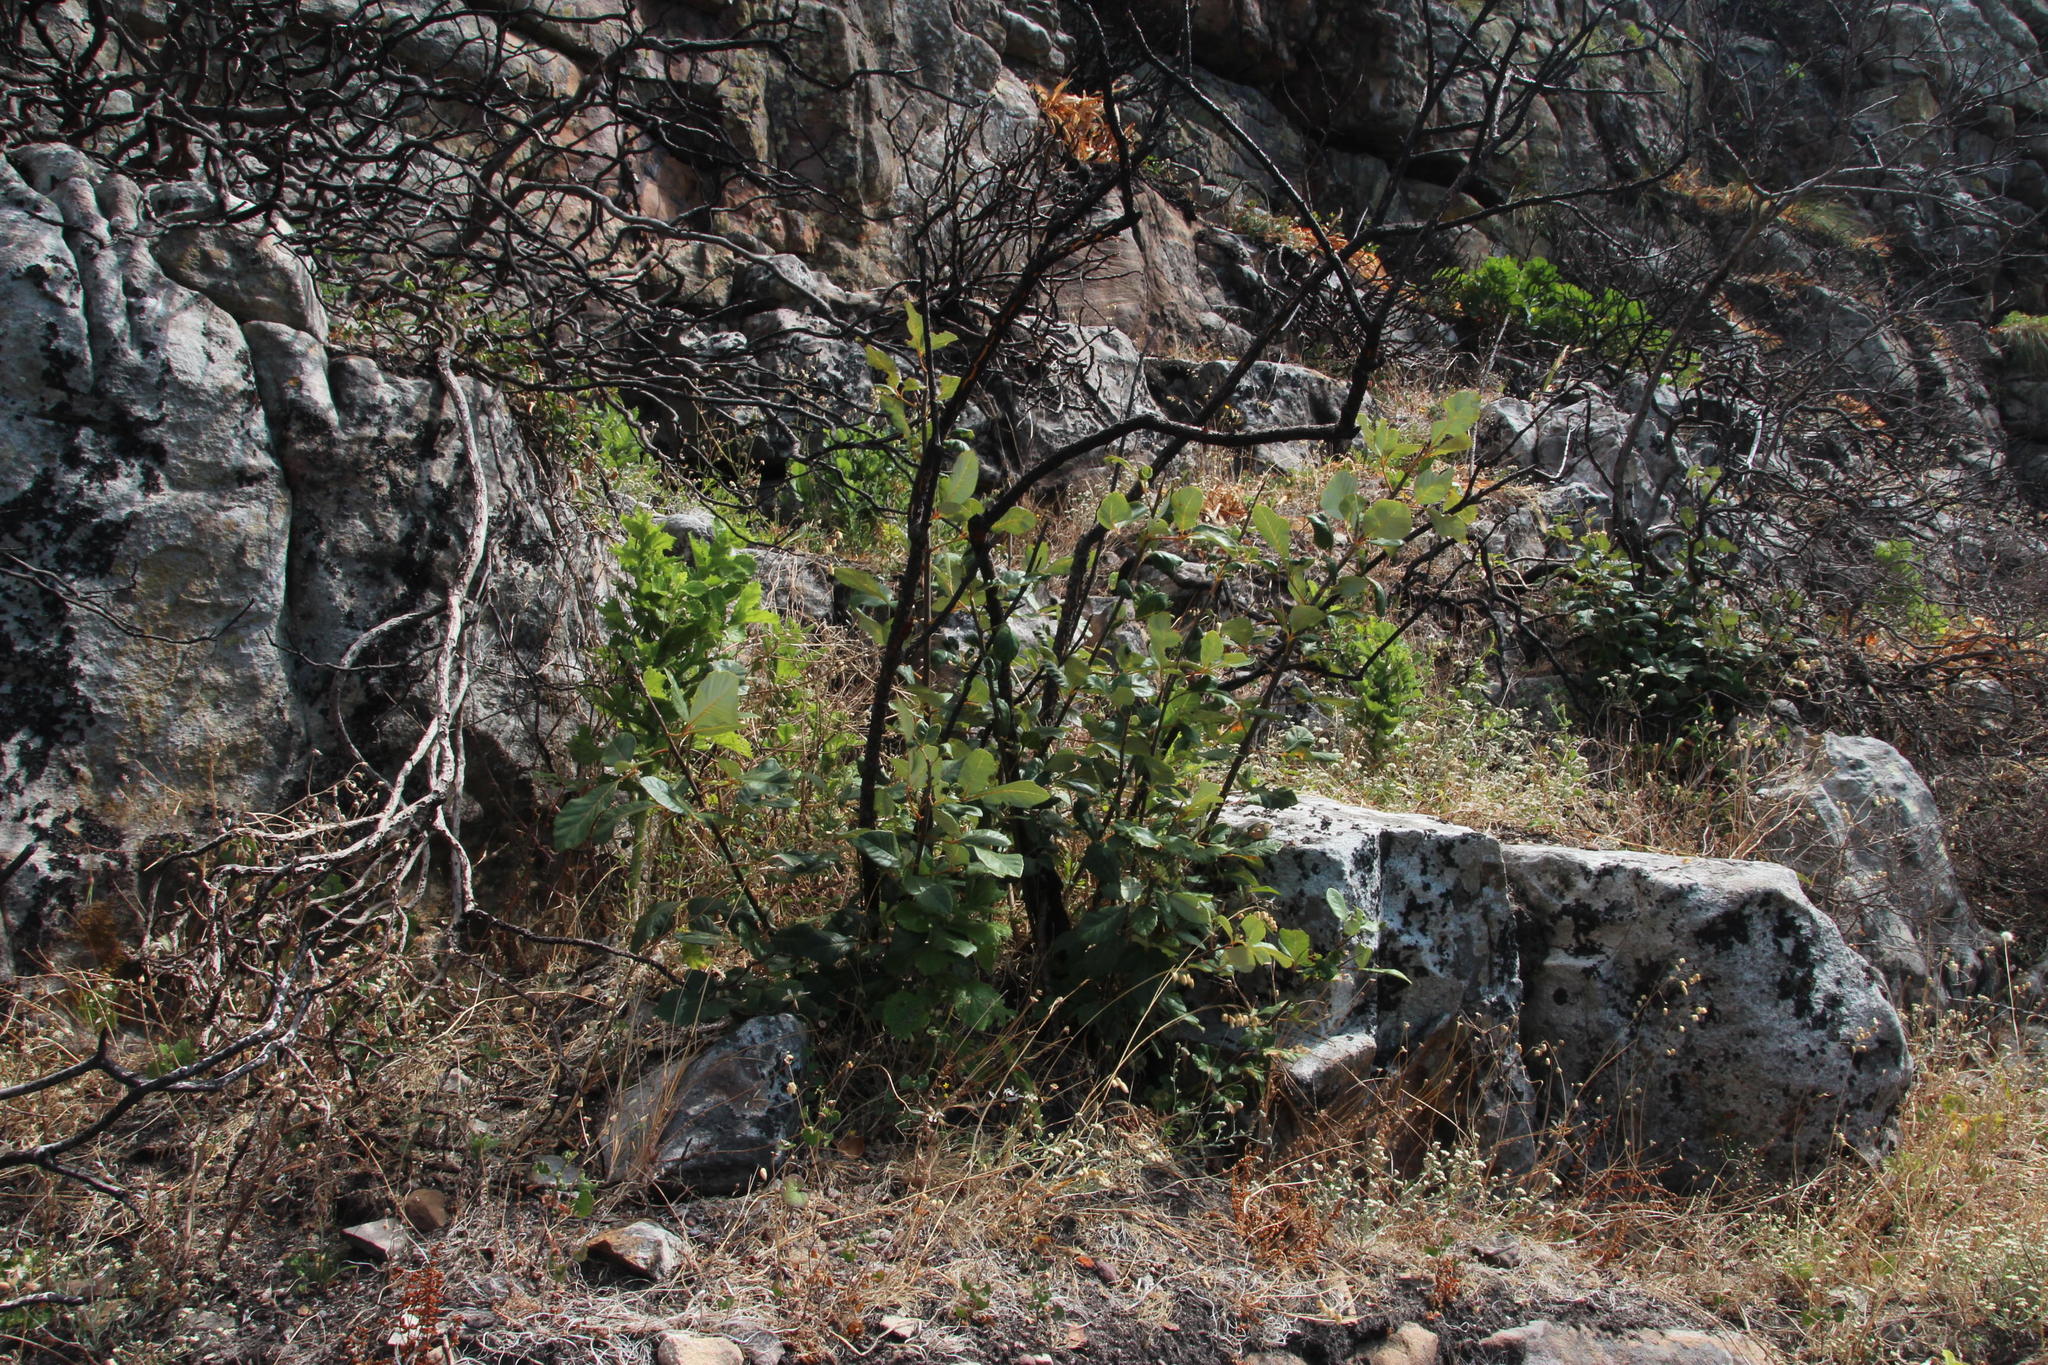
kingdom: Plantae
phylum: Tracheophyta
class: Magnoliopsida
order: Sapindales
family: Anacardiaceae
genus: Searsia
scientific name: Searsia tomentosa
